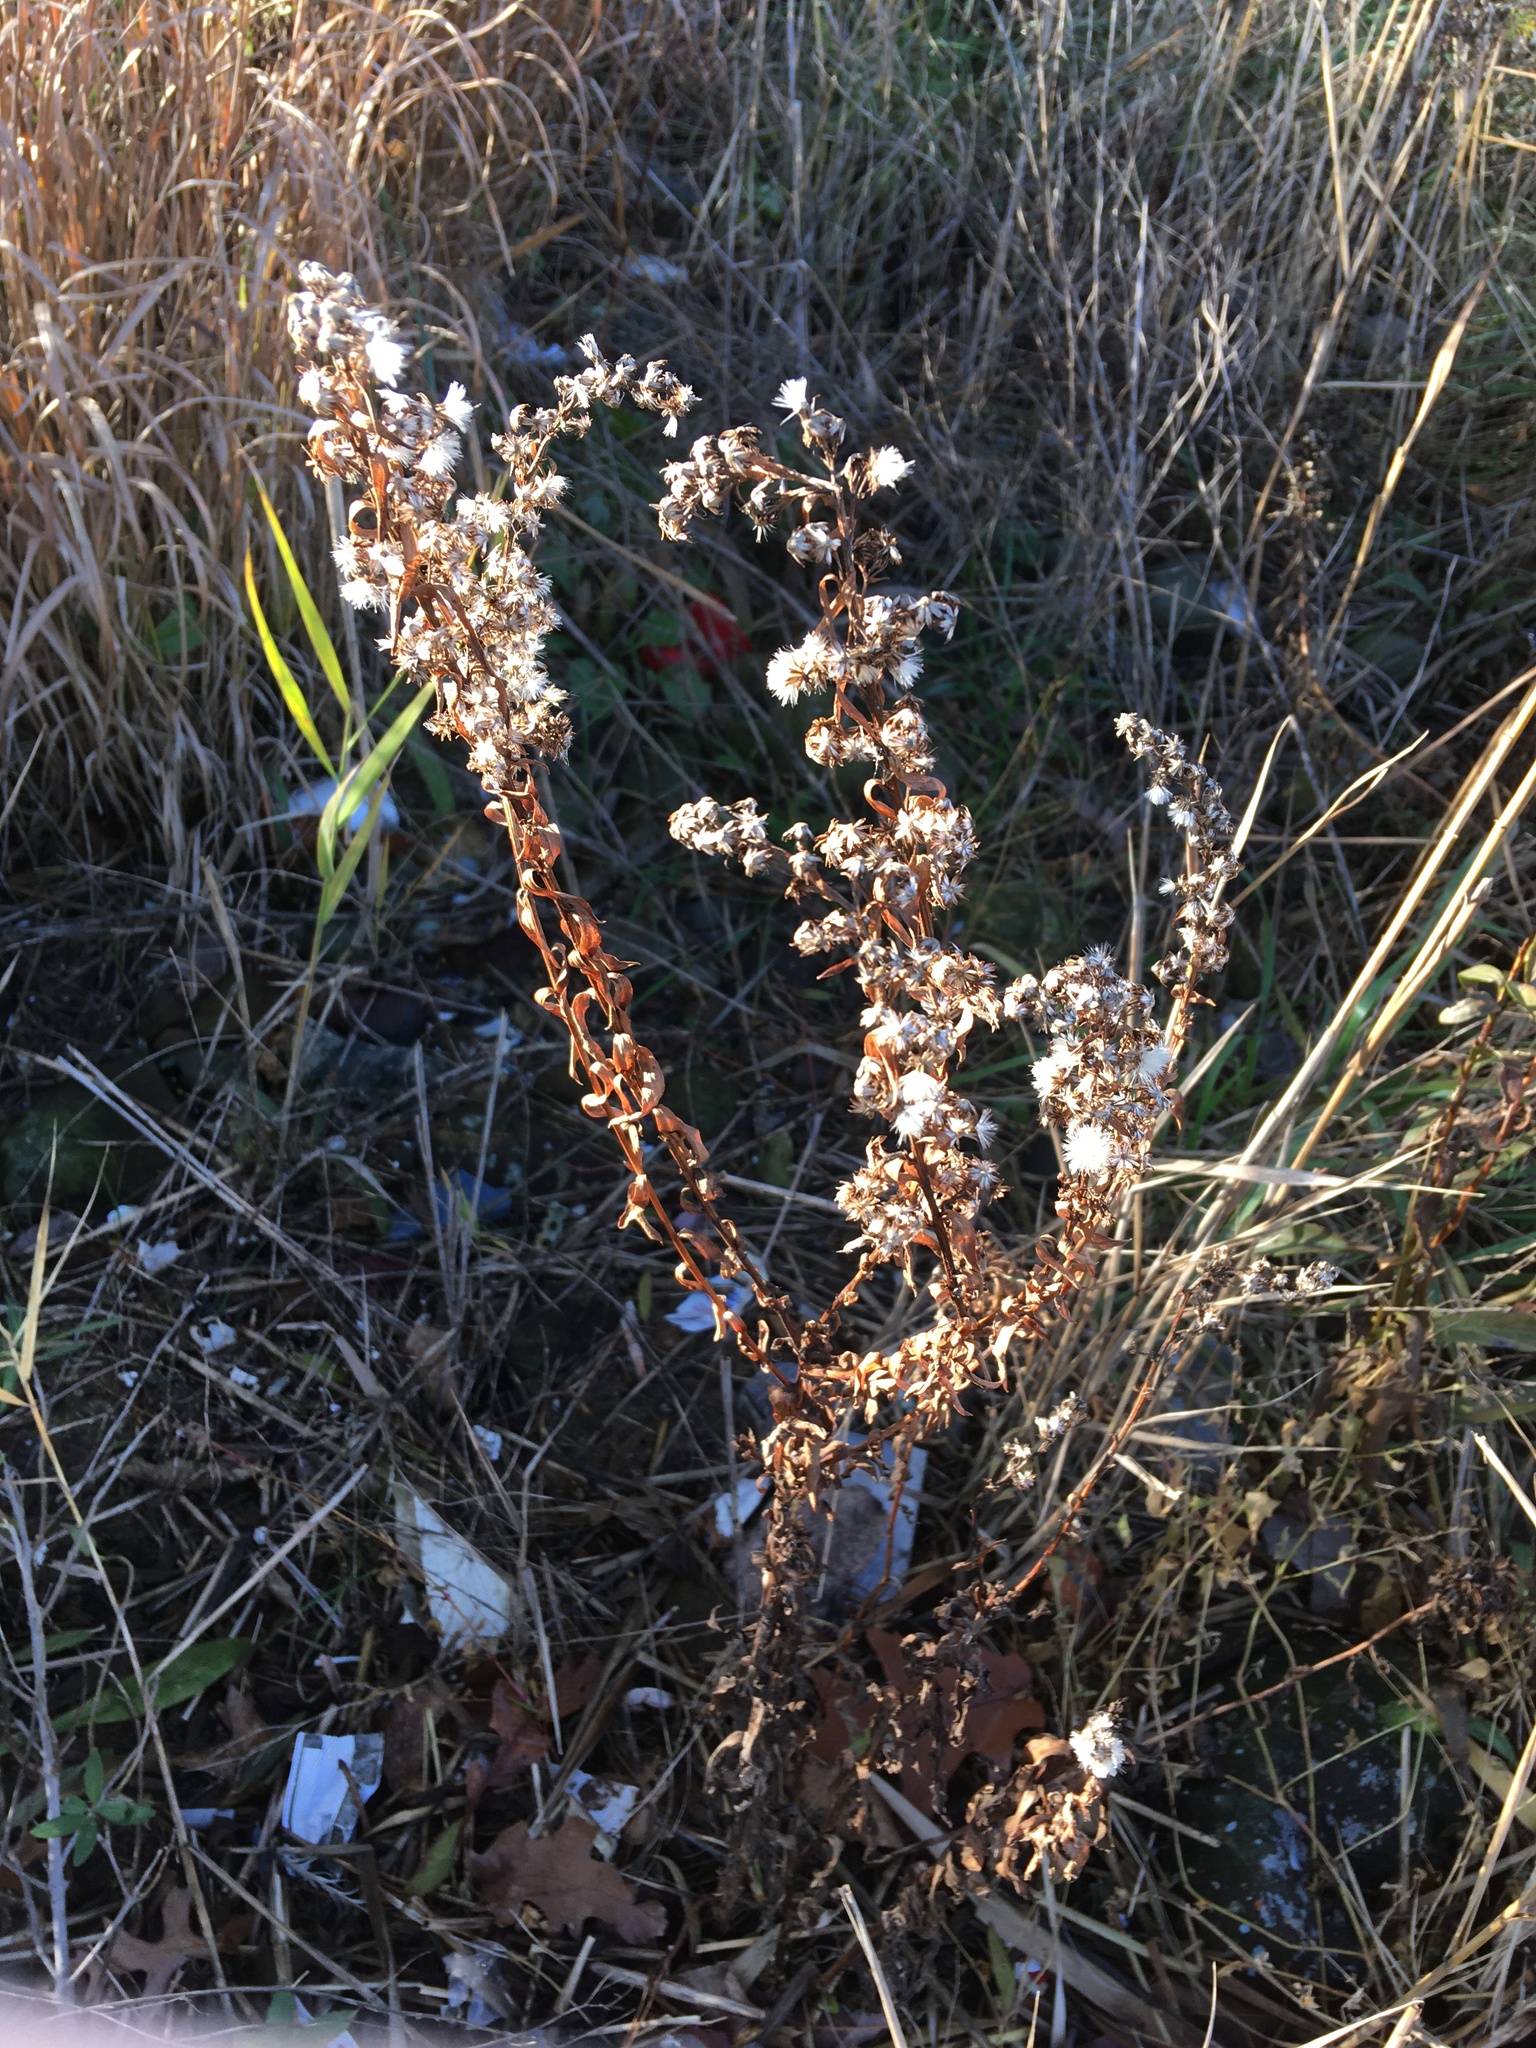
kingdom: Plantae
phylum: Tracheophyta
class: Magnoliopsida
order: Asterales
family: Asteraceae
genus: Solidago
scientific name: Solidago sempervirens
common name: Salt-marsh goldenrod
